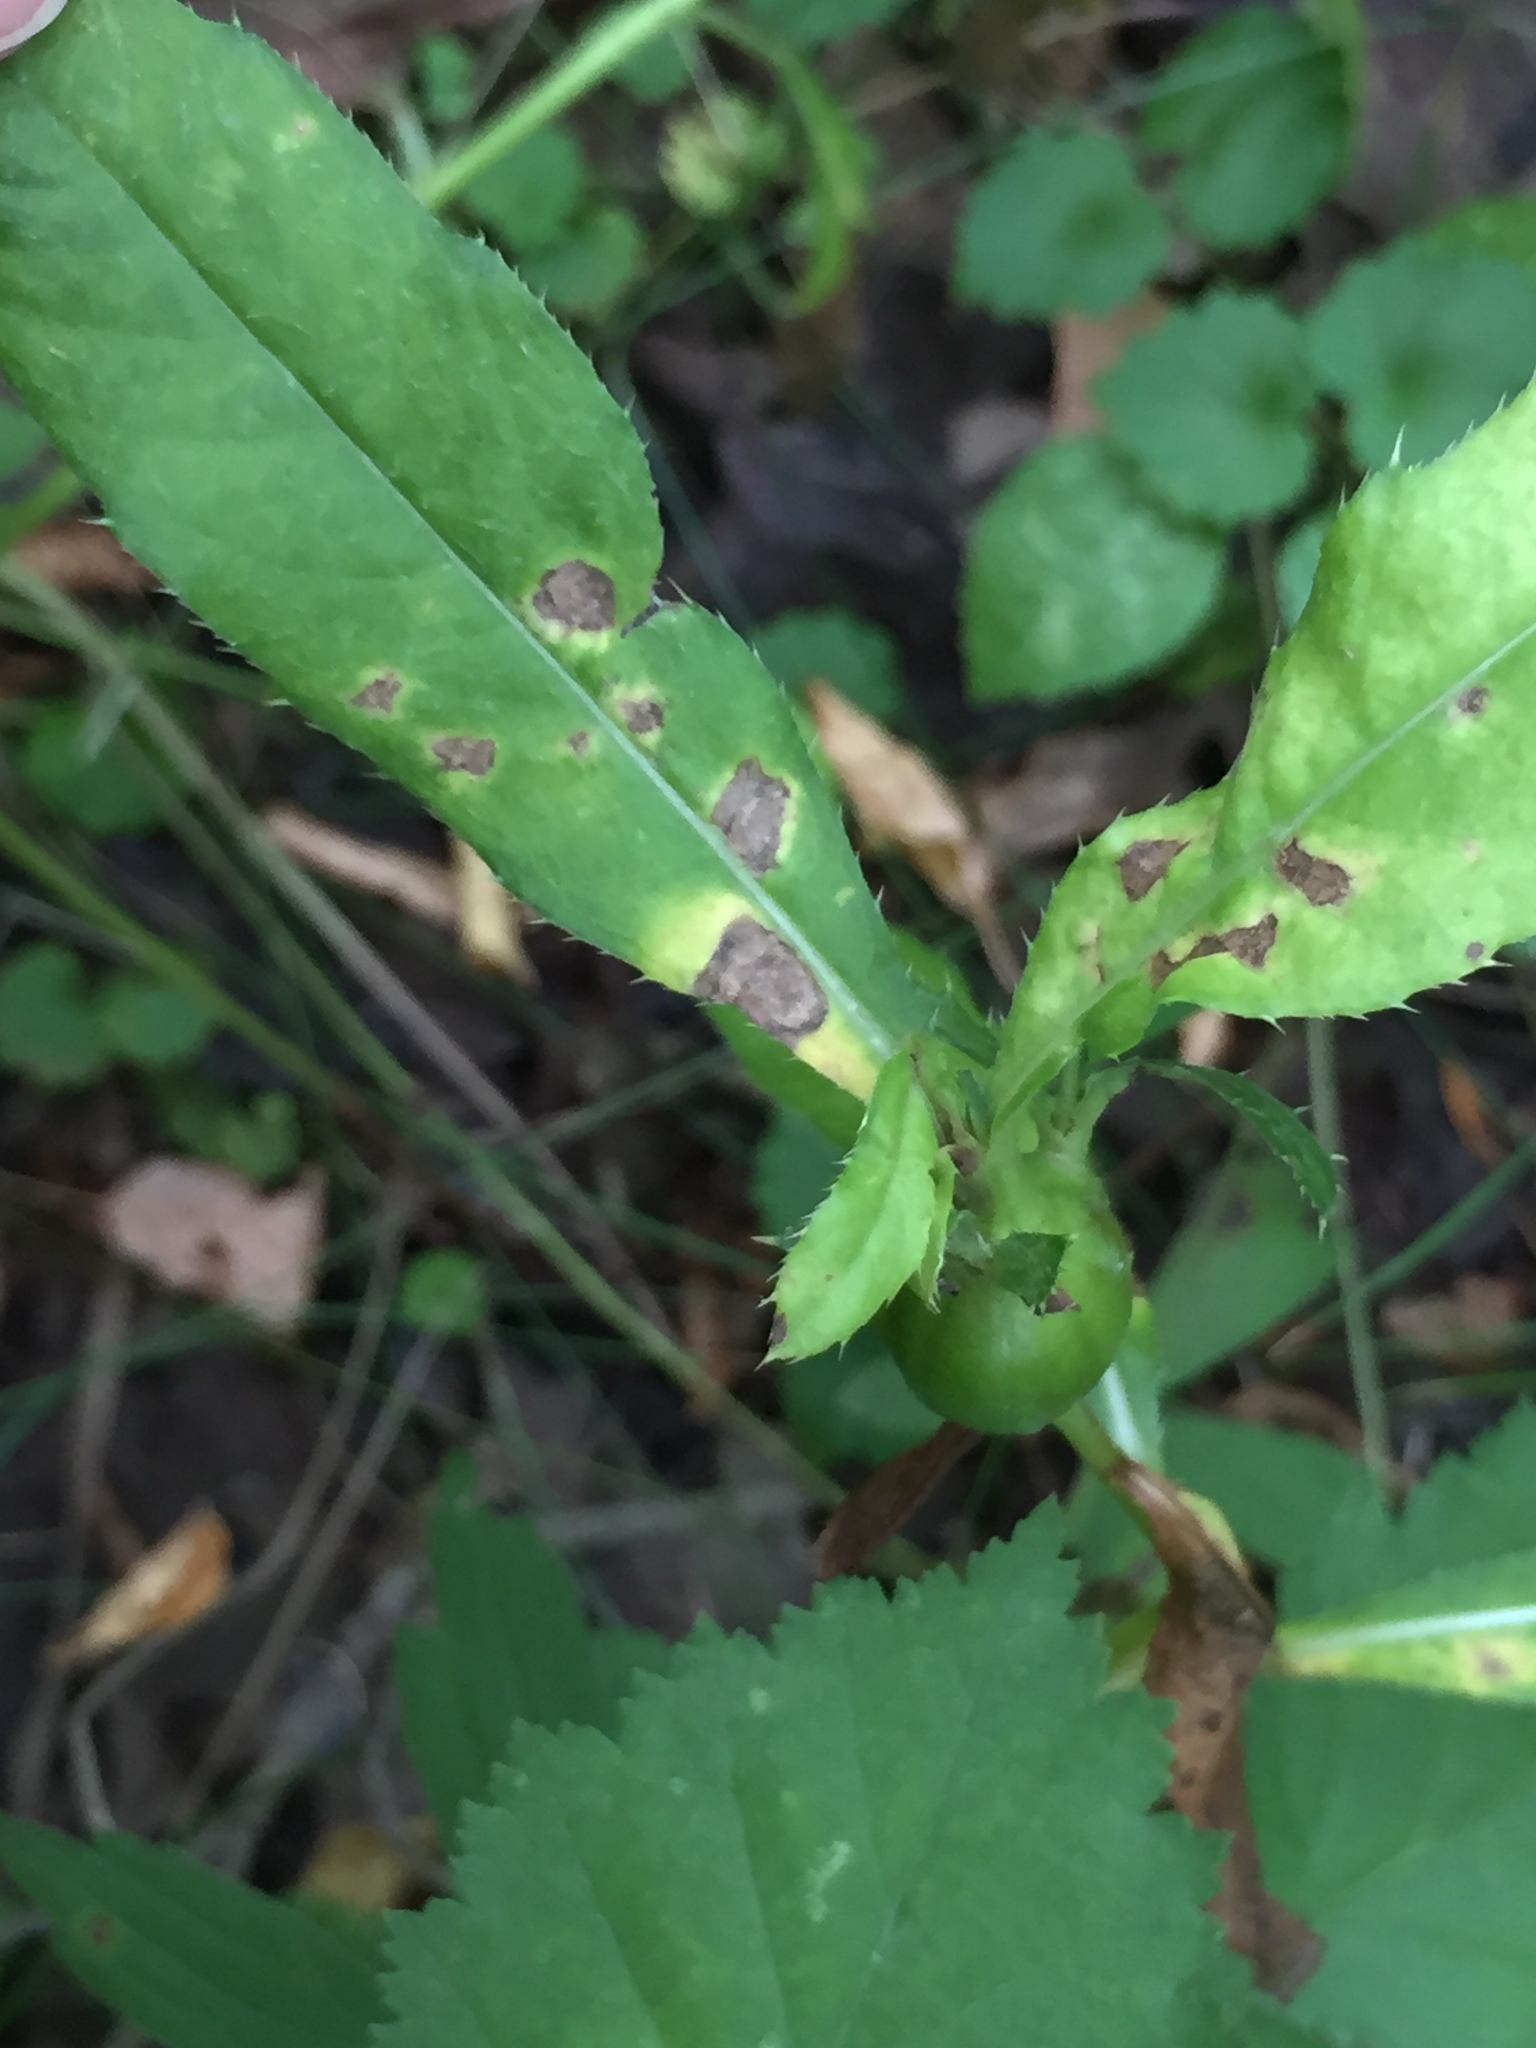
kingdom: Plantae
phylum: Tracheophyta
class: Magnoliopsida
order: Asterales
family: Asteraceae
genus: Cirsium
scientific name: Cirsium arvense
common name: Creeping thistle
